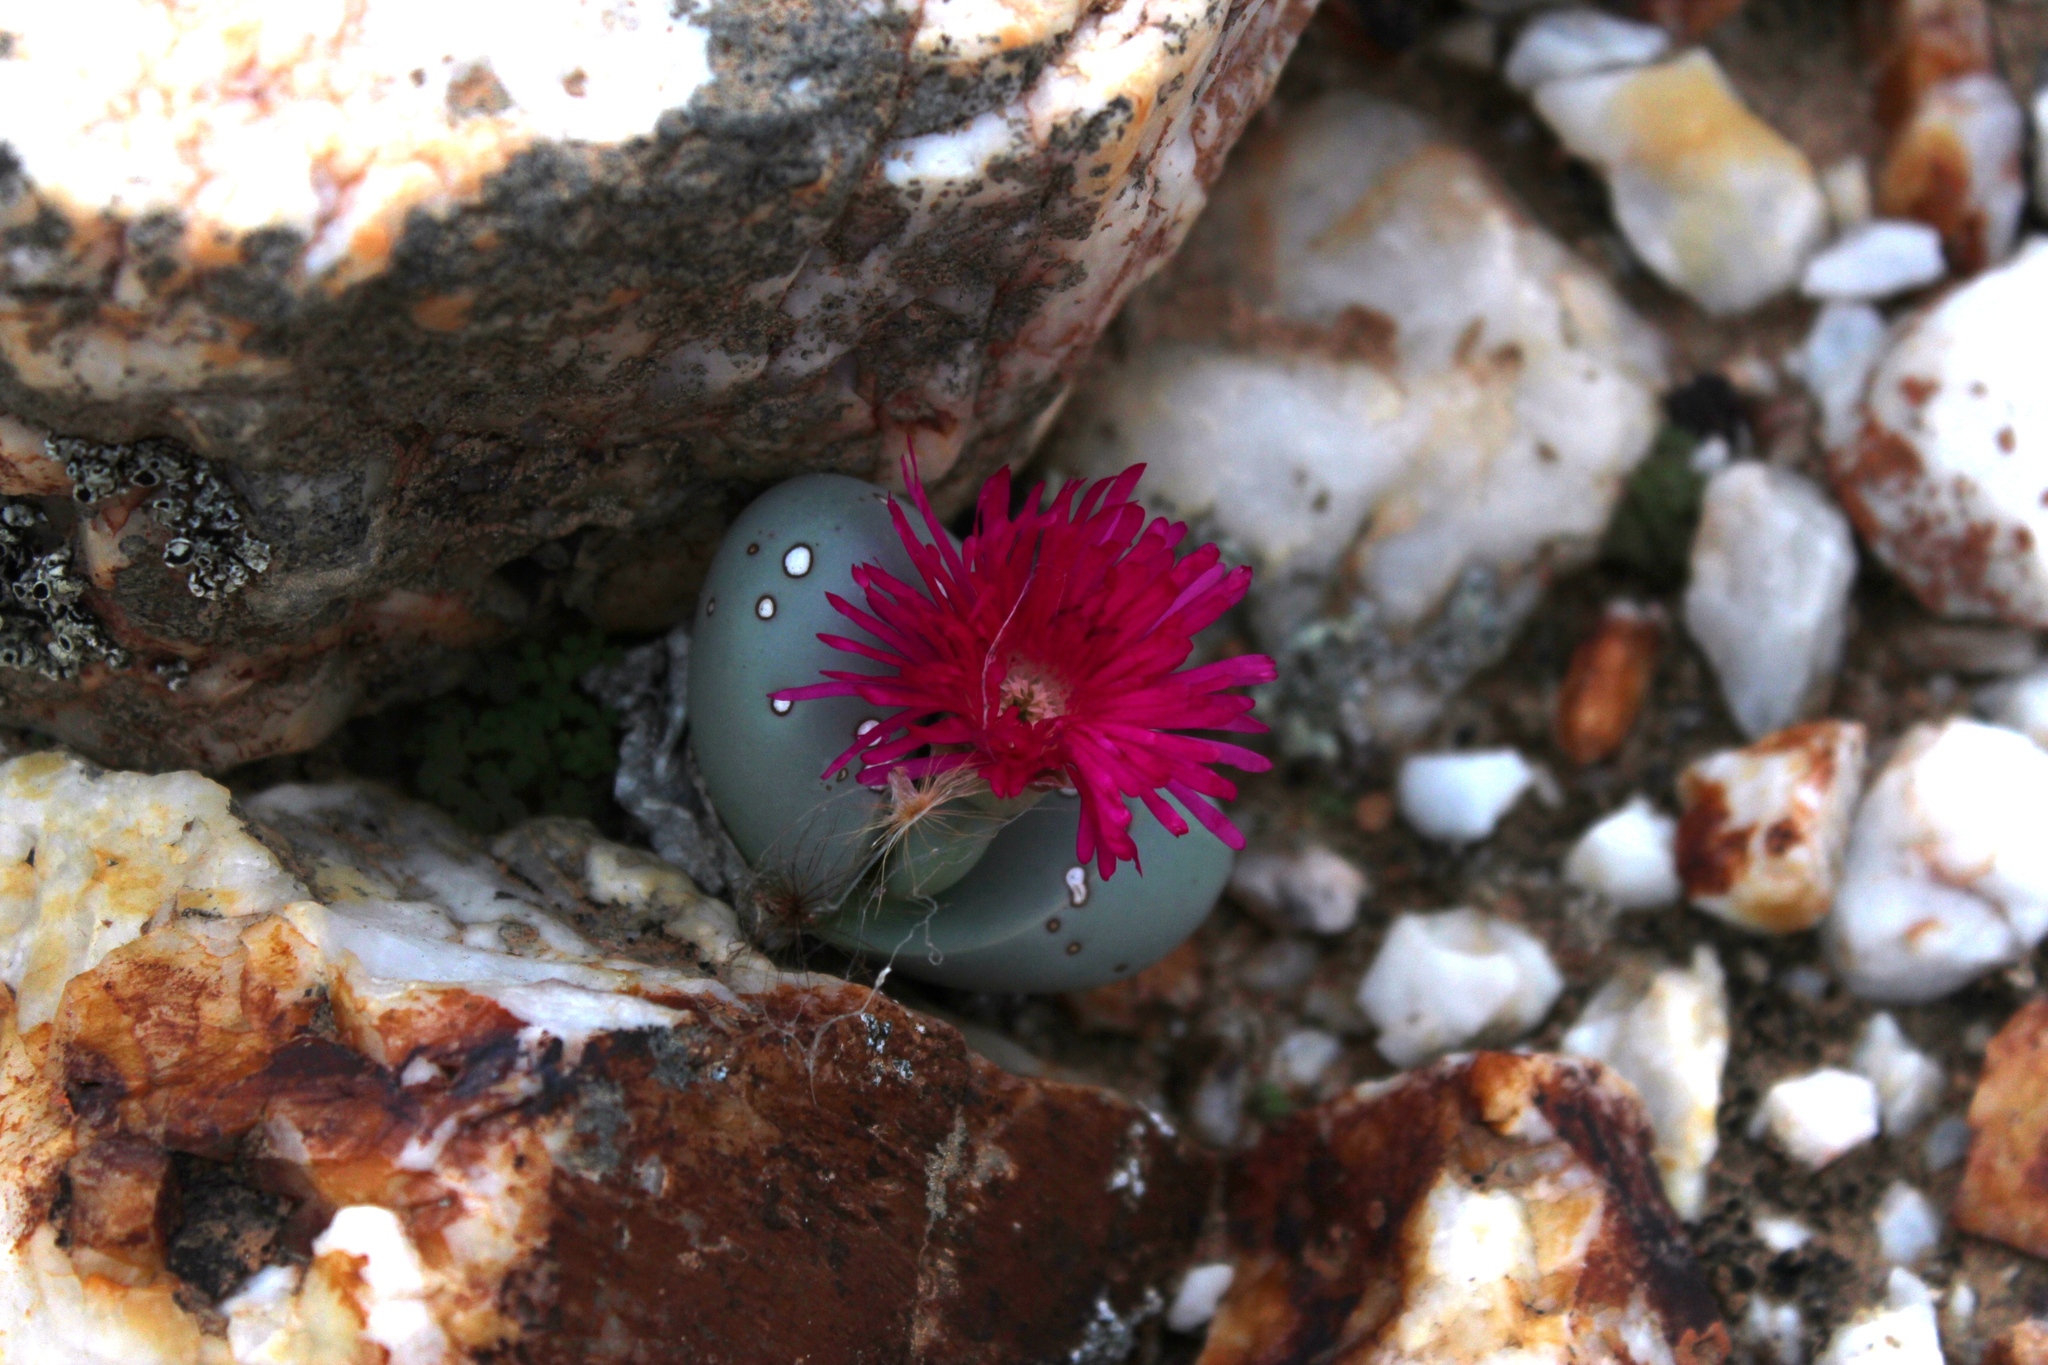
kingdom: Plantae
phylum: Tracheophyta
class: Magnoliopsida
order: Caryophyllales
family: Aizoaceae
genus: Argyroderma
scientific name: Argyroderma delaetii
